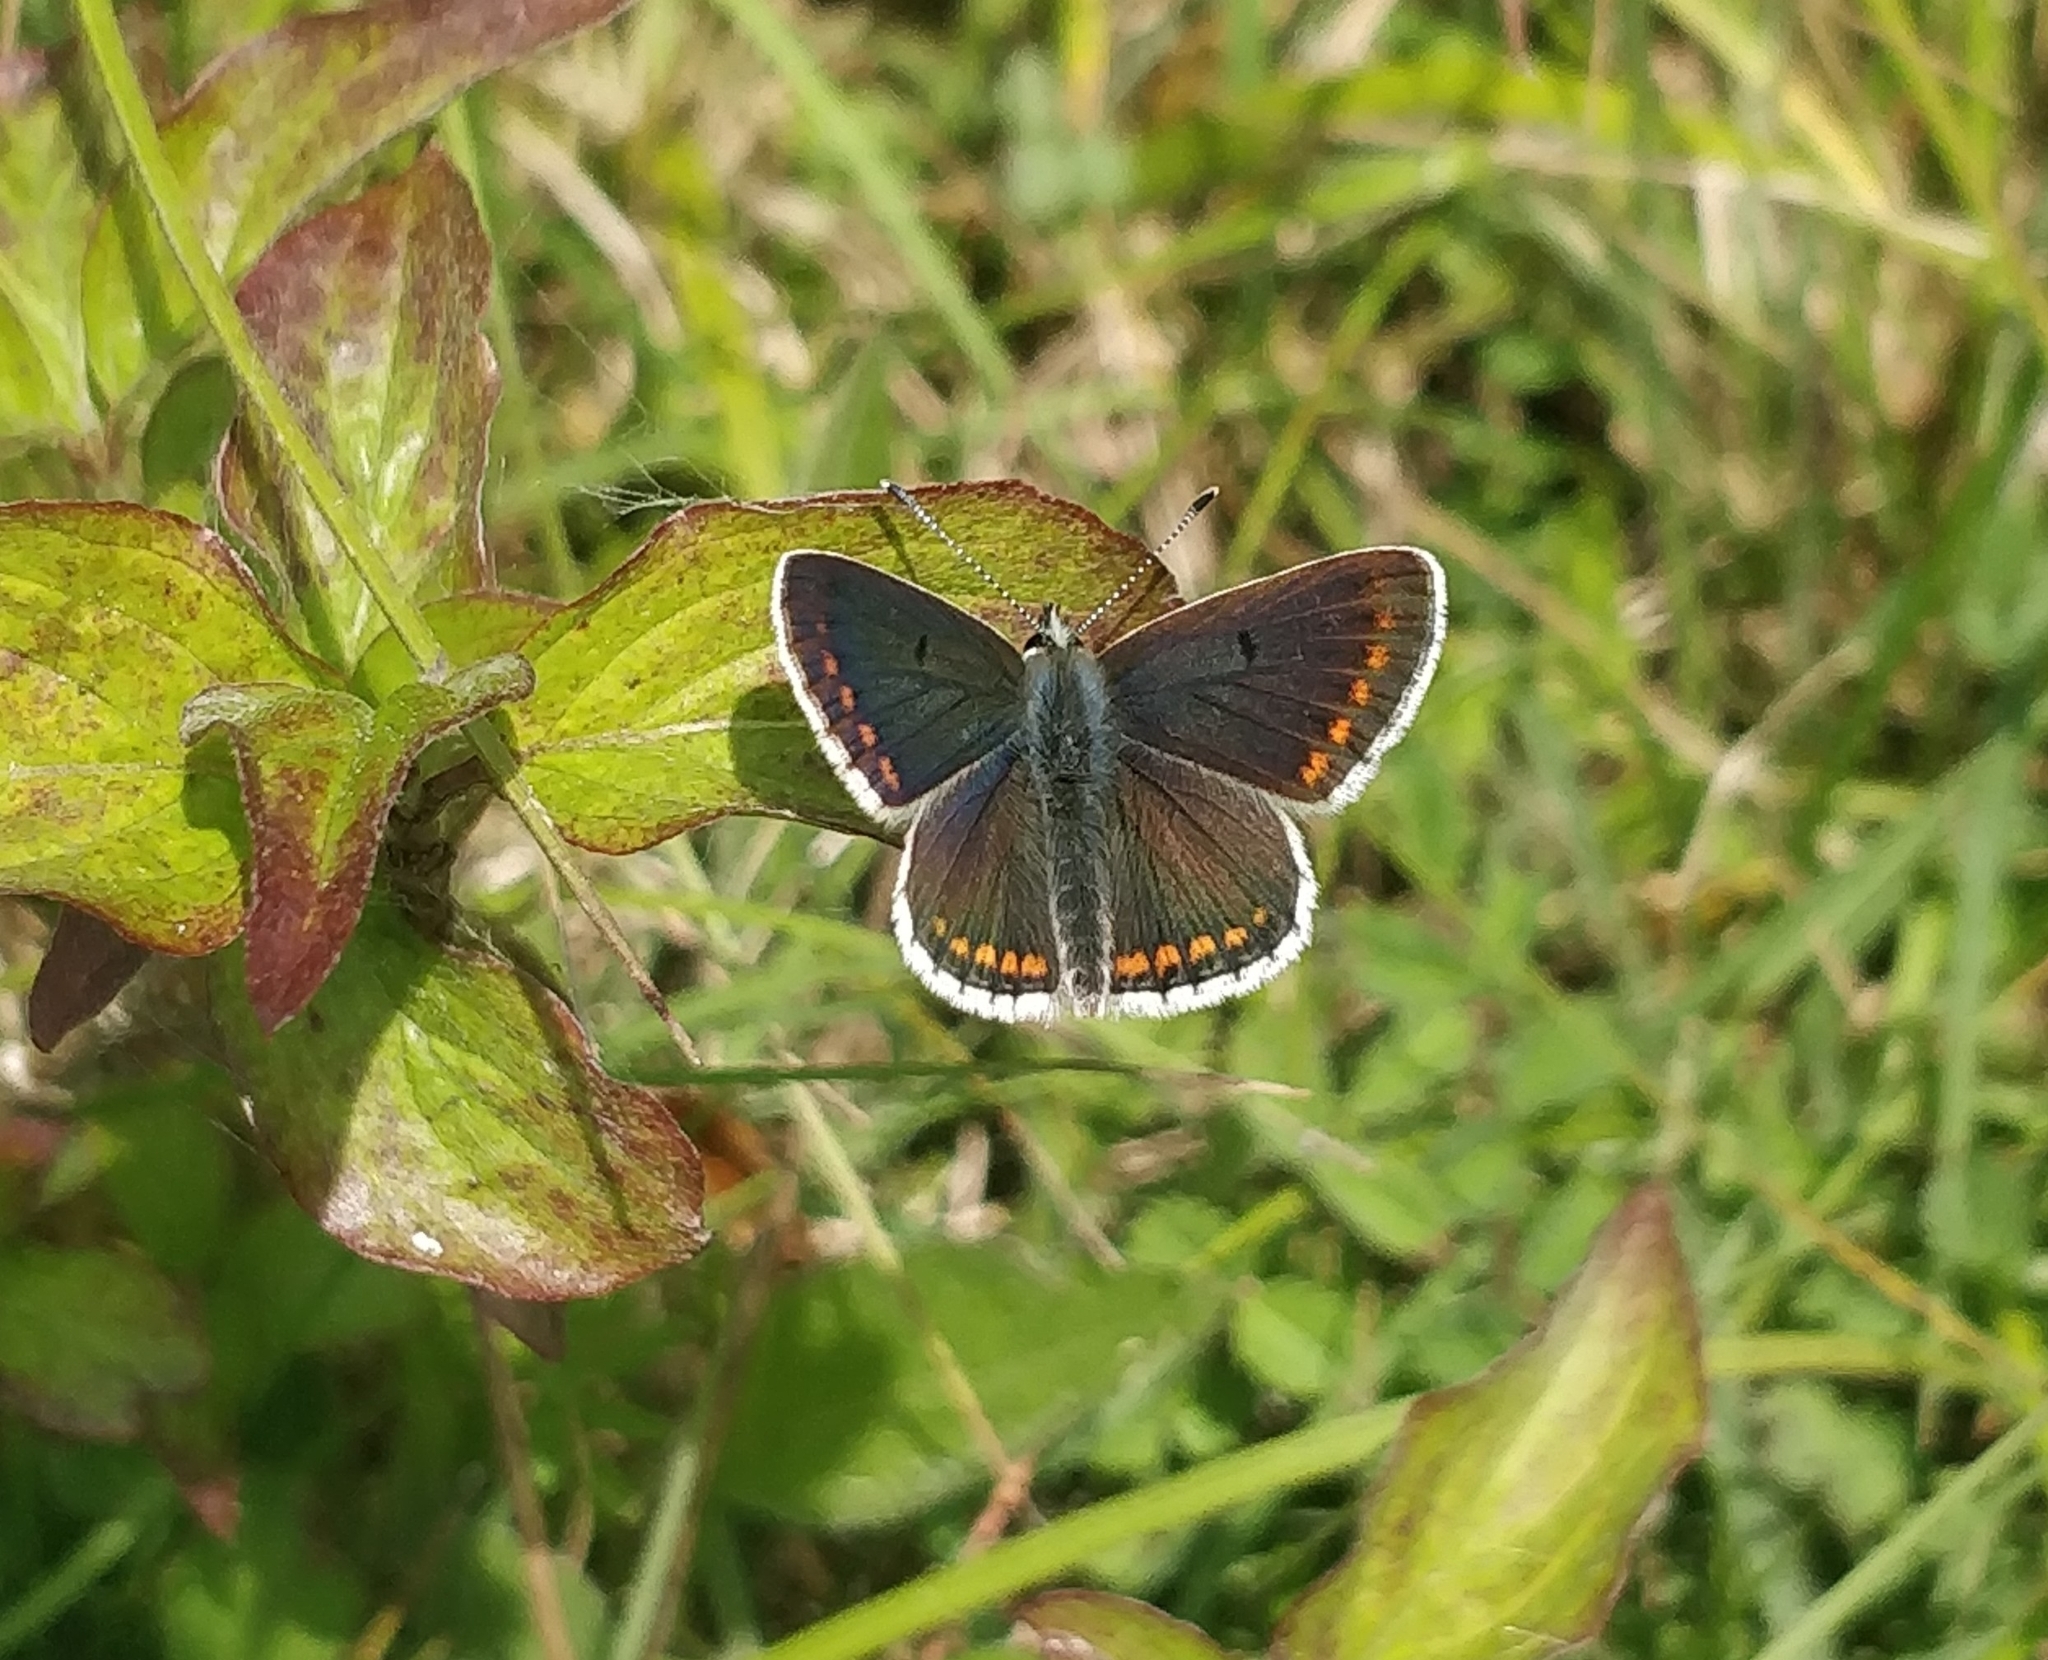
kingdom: Animalia
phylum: Arthropoda
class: Insecta
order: Lepidoptera
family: Lycaenidae
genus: Aricia
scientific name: Aricia agestis
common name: Brown argus
